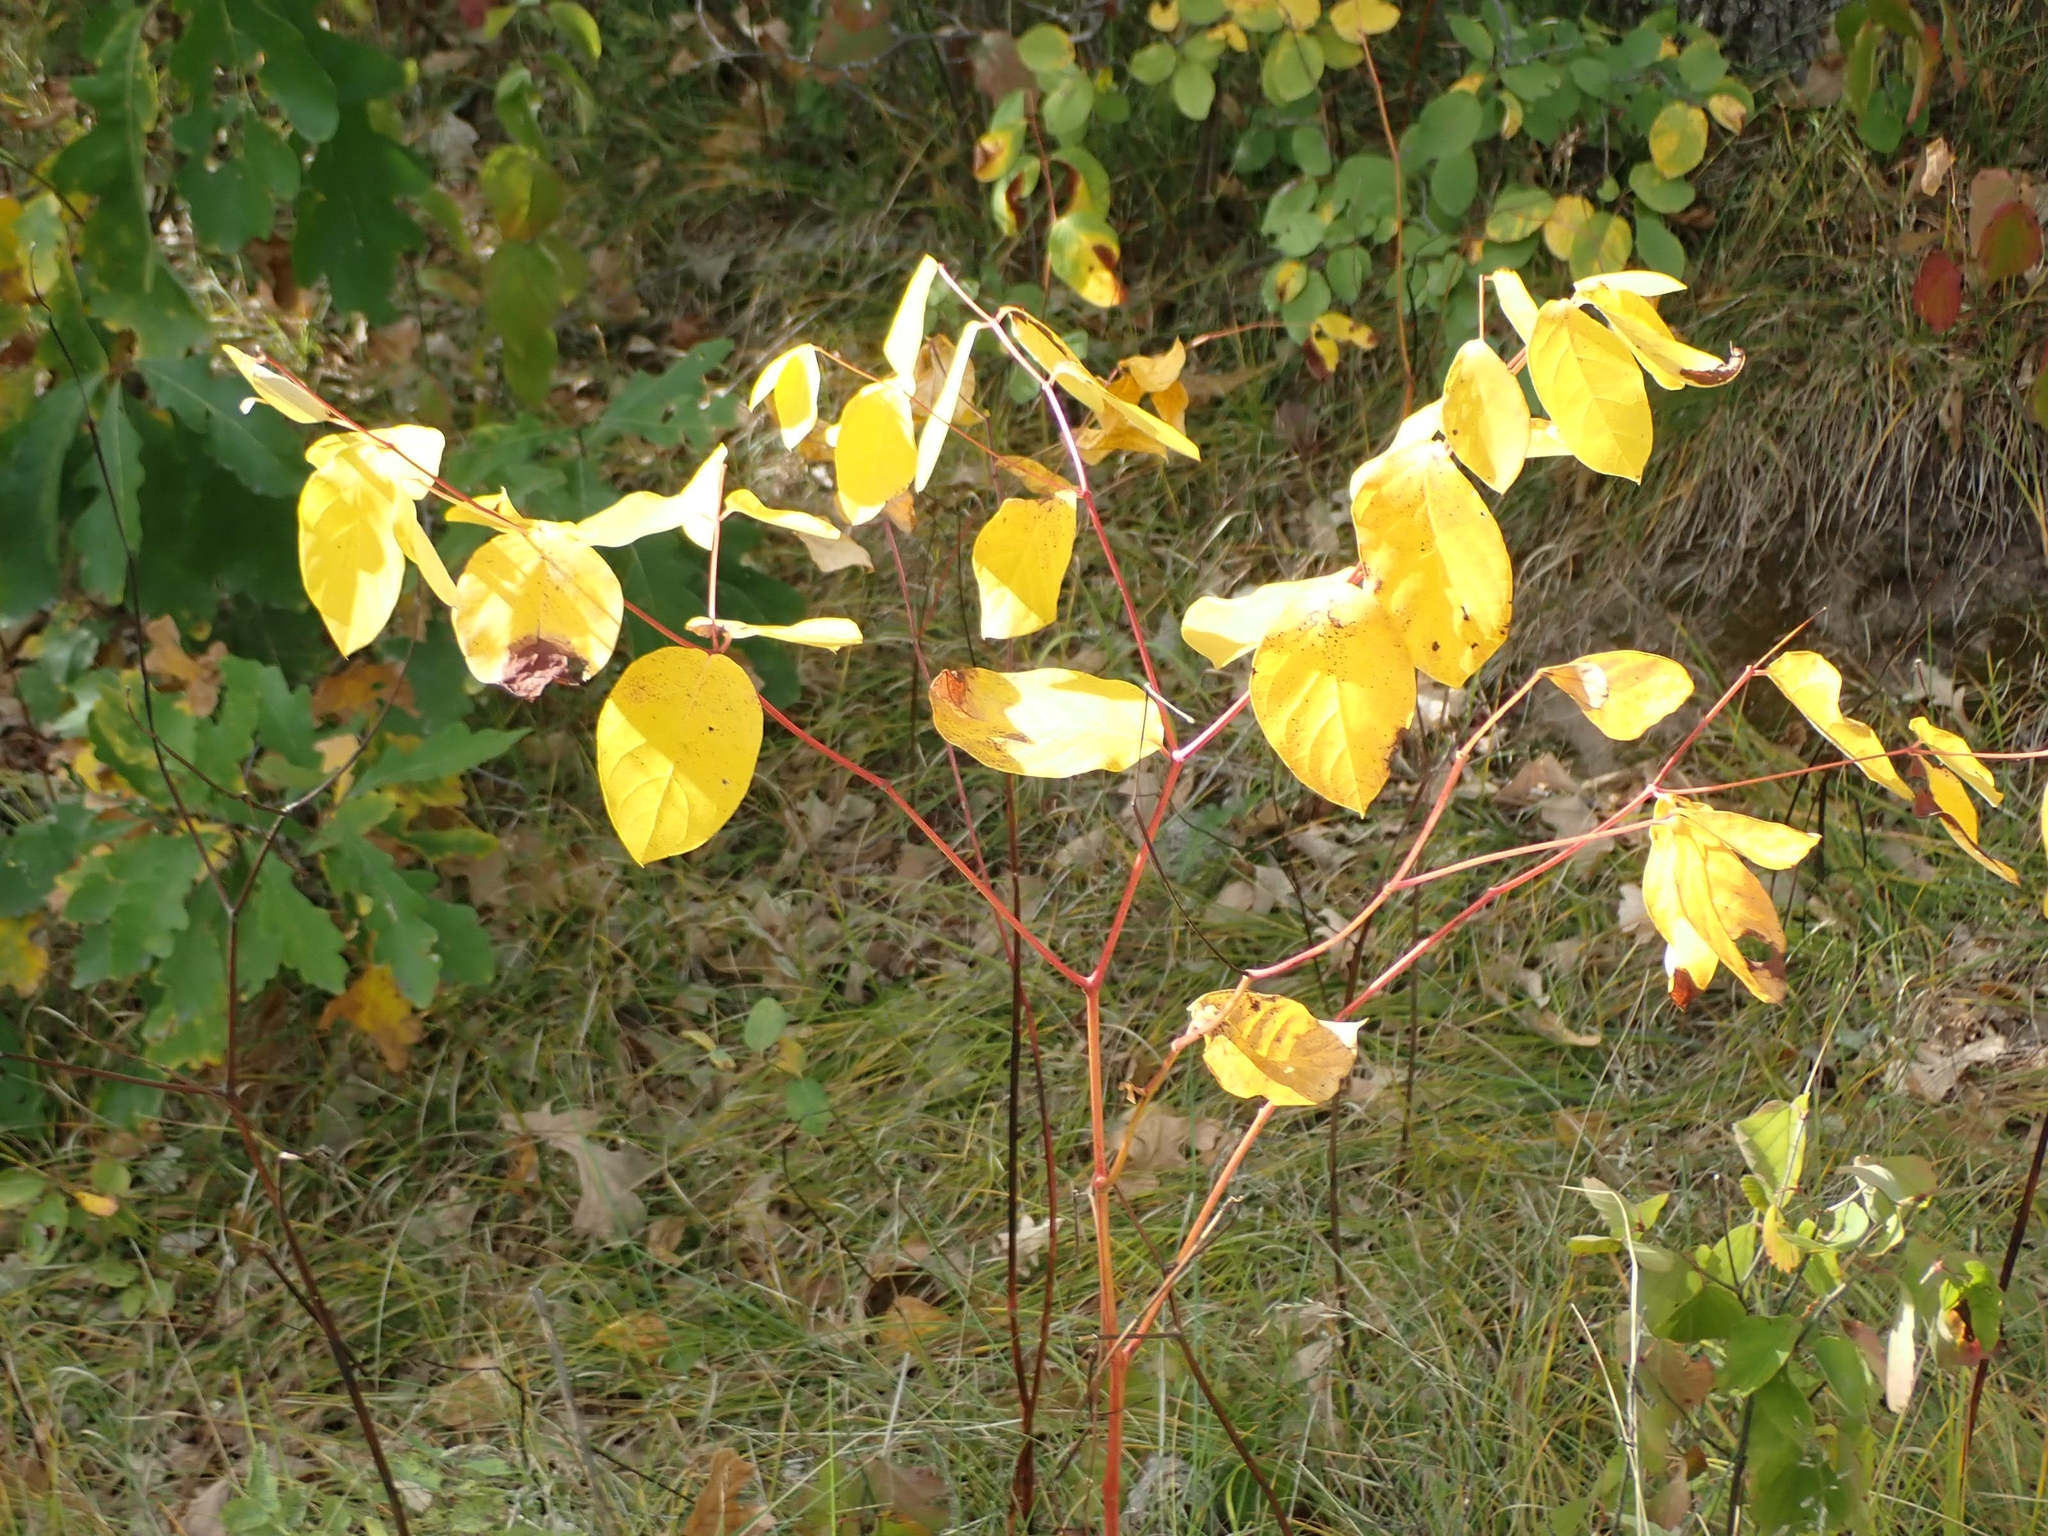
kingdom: Plantae
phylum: Tracheophyta
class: Magnoliopsida
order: Gentianales
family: Apocynaceae
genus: Apocynum
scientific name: Apocynum androsaemifolium
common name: Spreading dogbane
